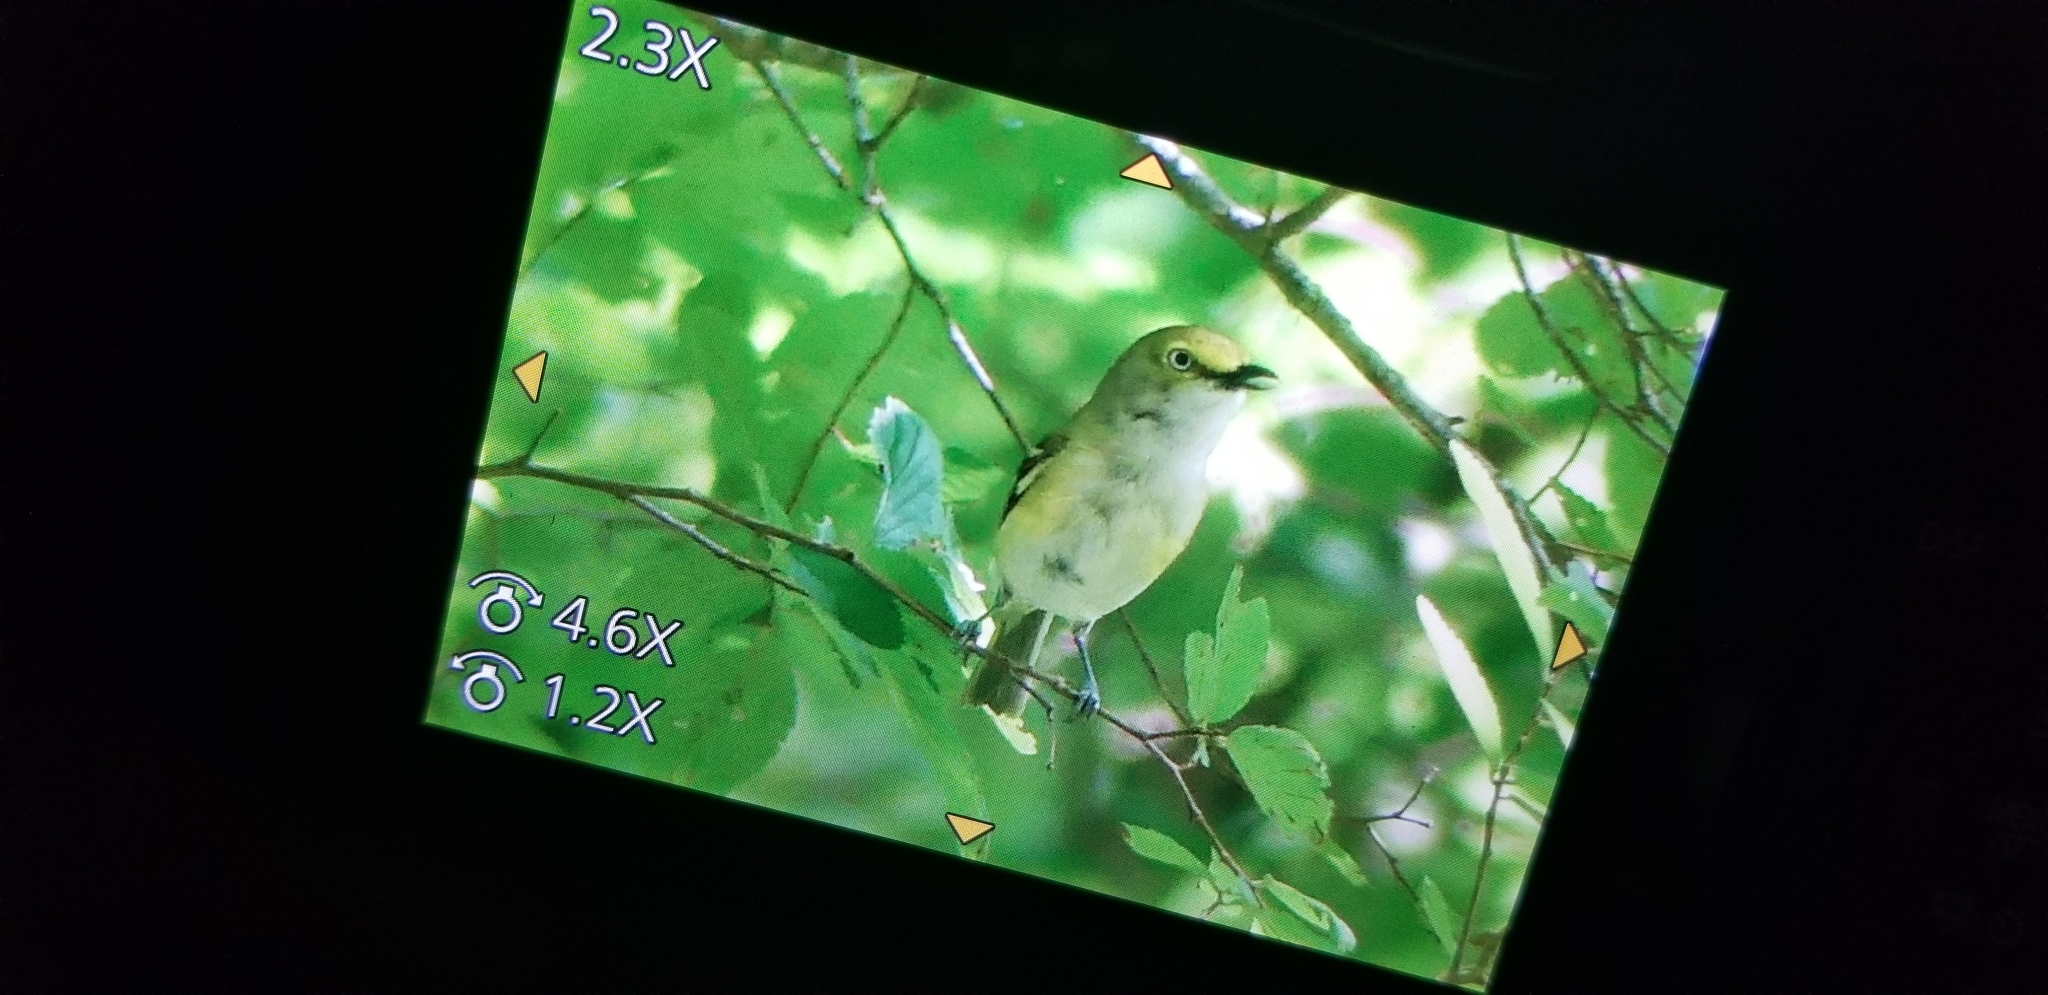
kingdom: Animalia
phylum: Chordata
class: Aves
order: Passeriformes
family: Vireonidae
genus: Vireo
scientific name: Vireo griseus
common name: White-eyed vireo
